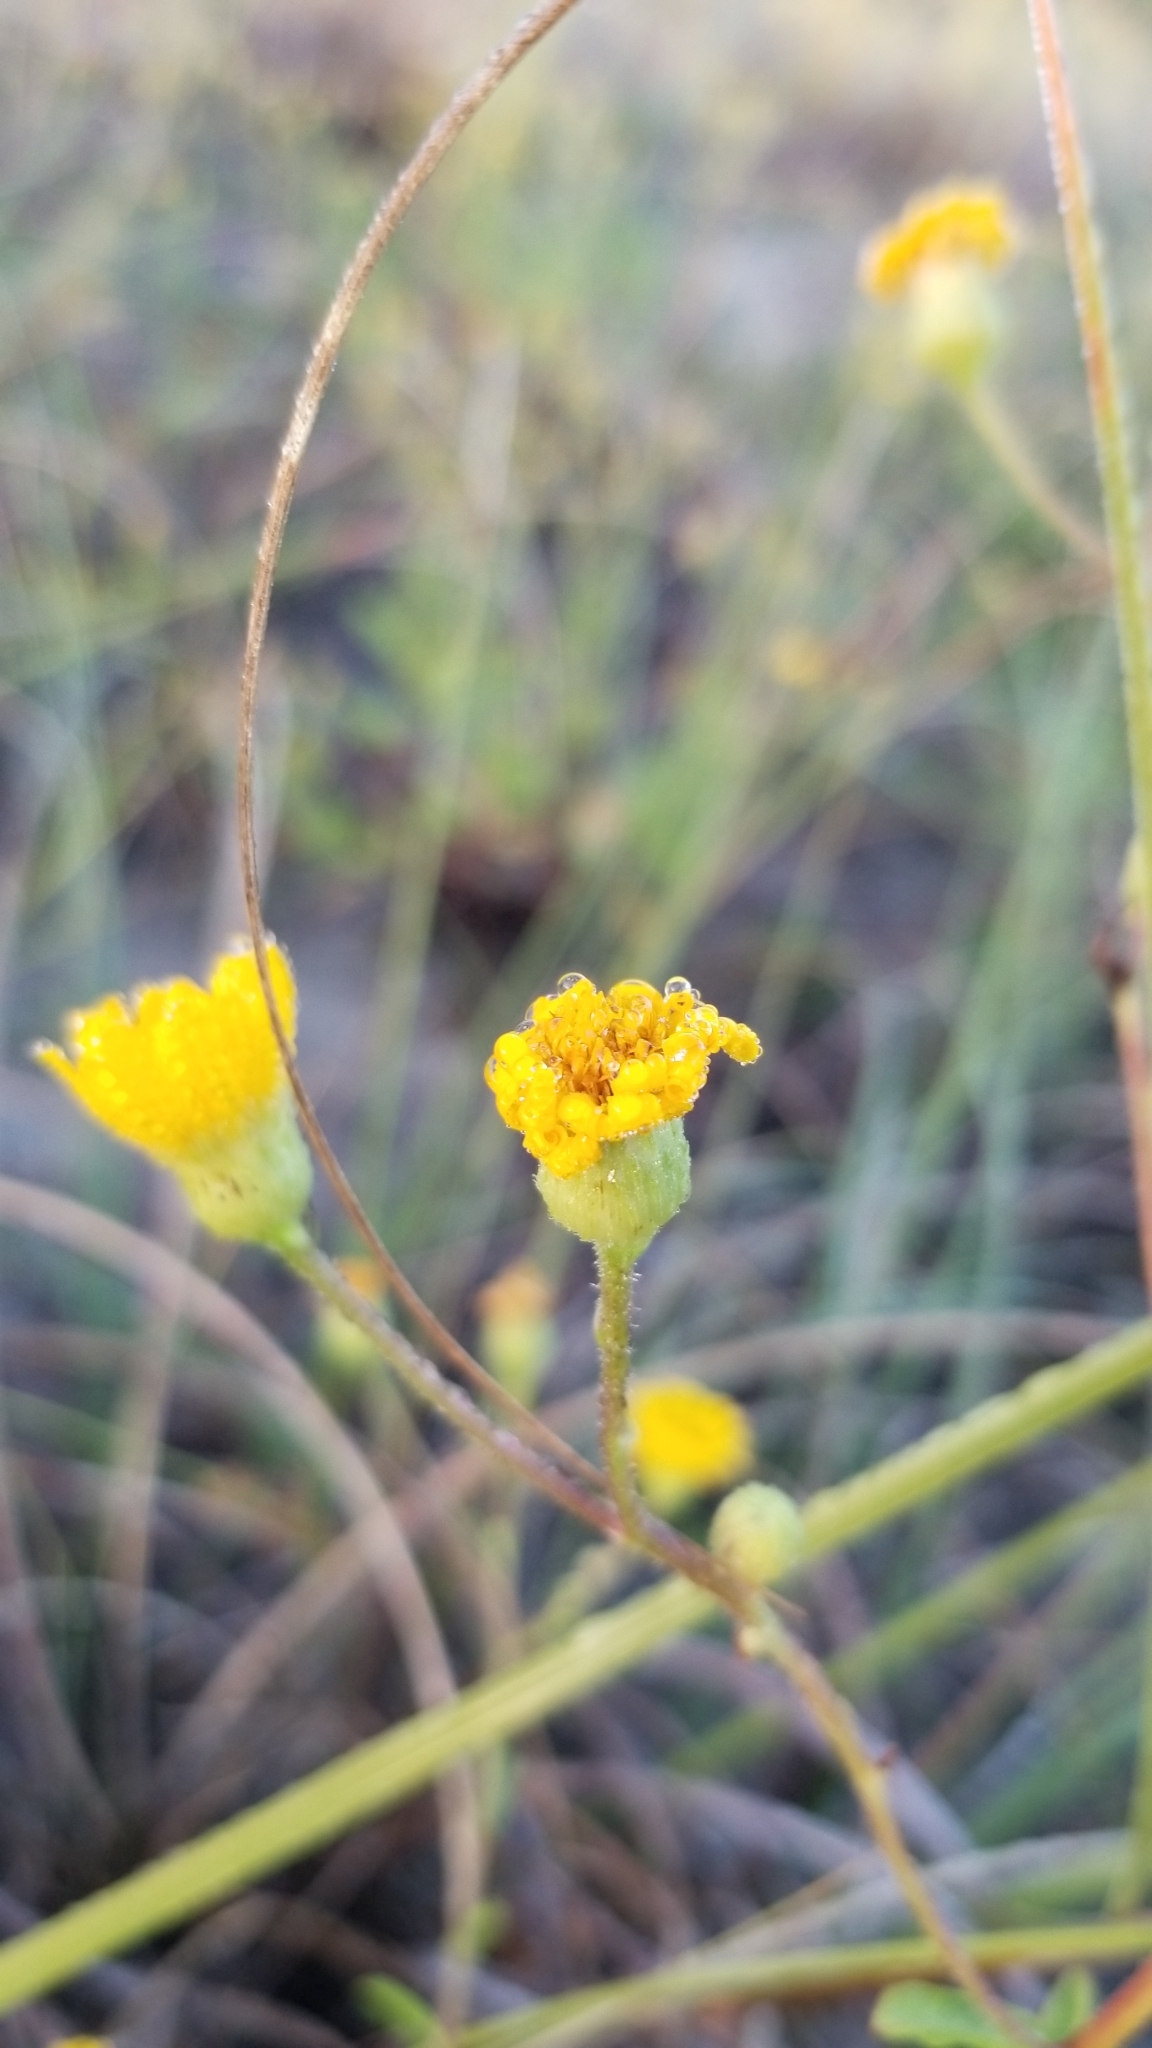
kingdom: Plantae
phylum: Tracheophyta
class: Magnoliopsida
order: Asterales
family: Asteraceae
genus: Heterotheca
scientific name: Heterotheca subaxillaris
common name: Camphorweed
